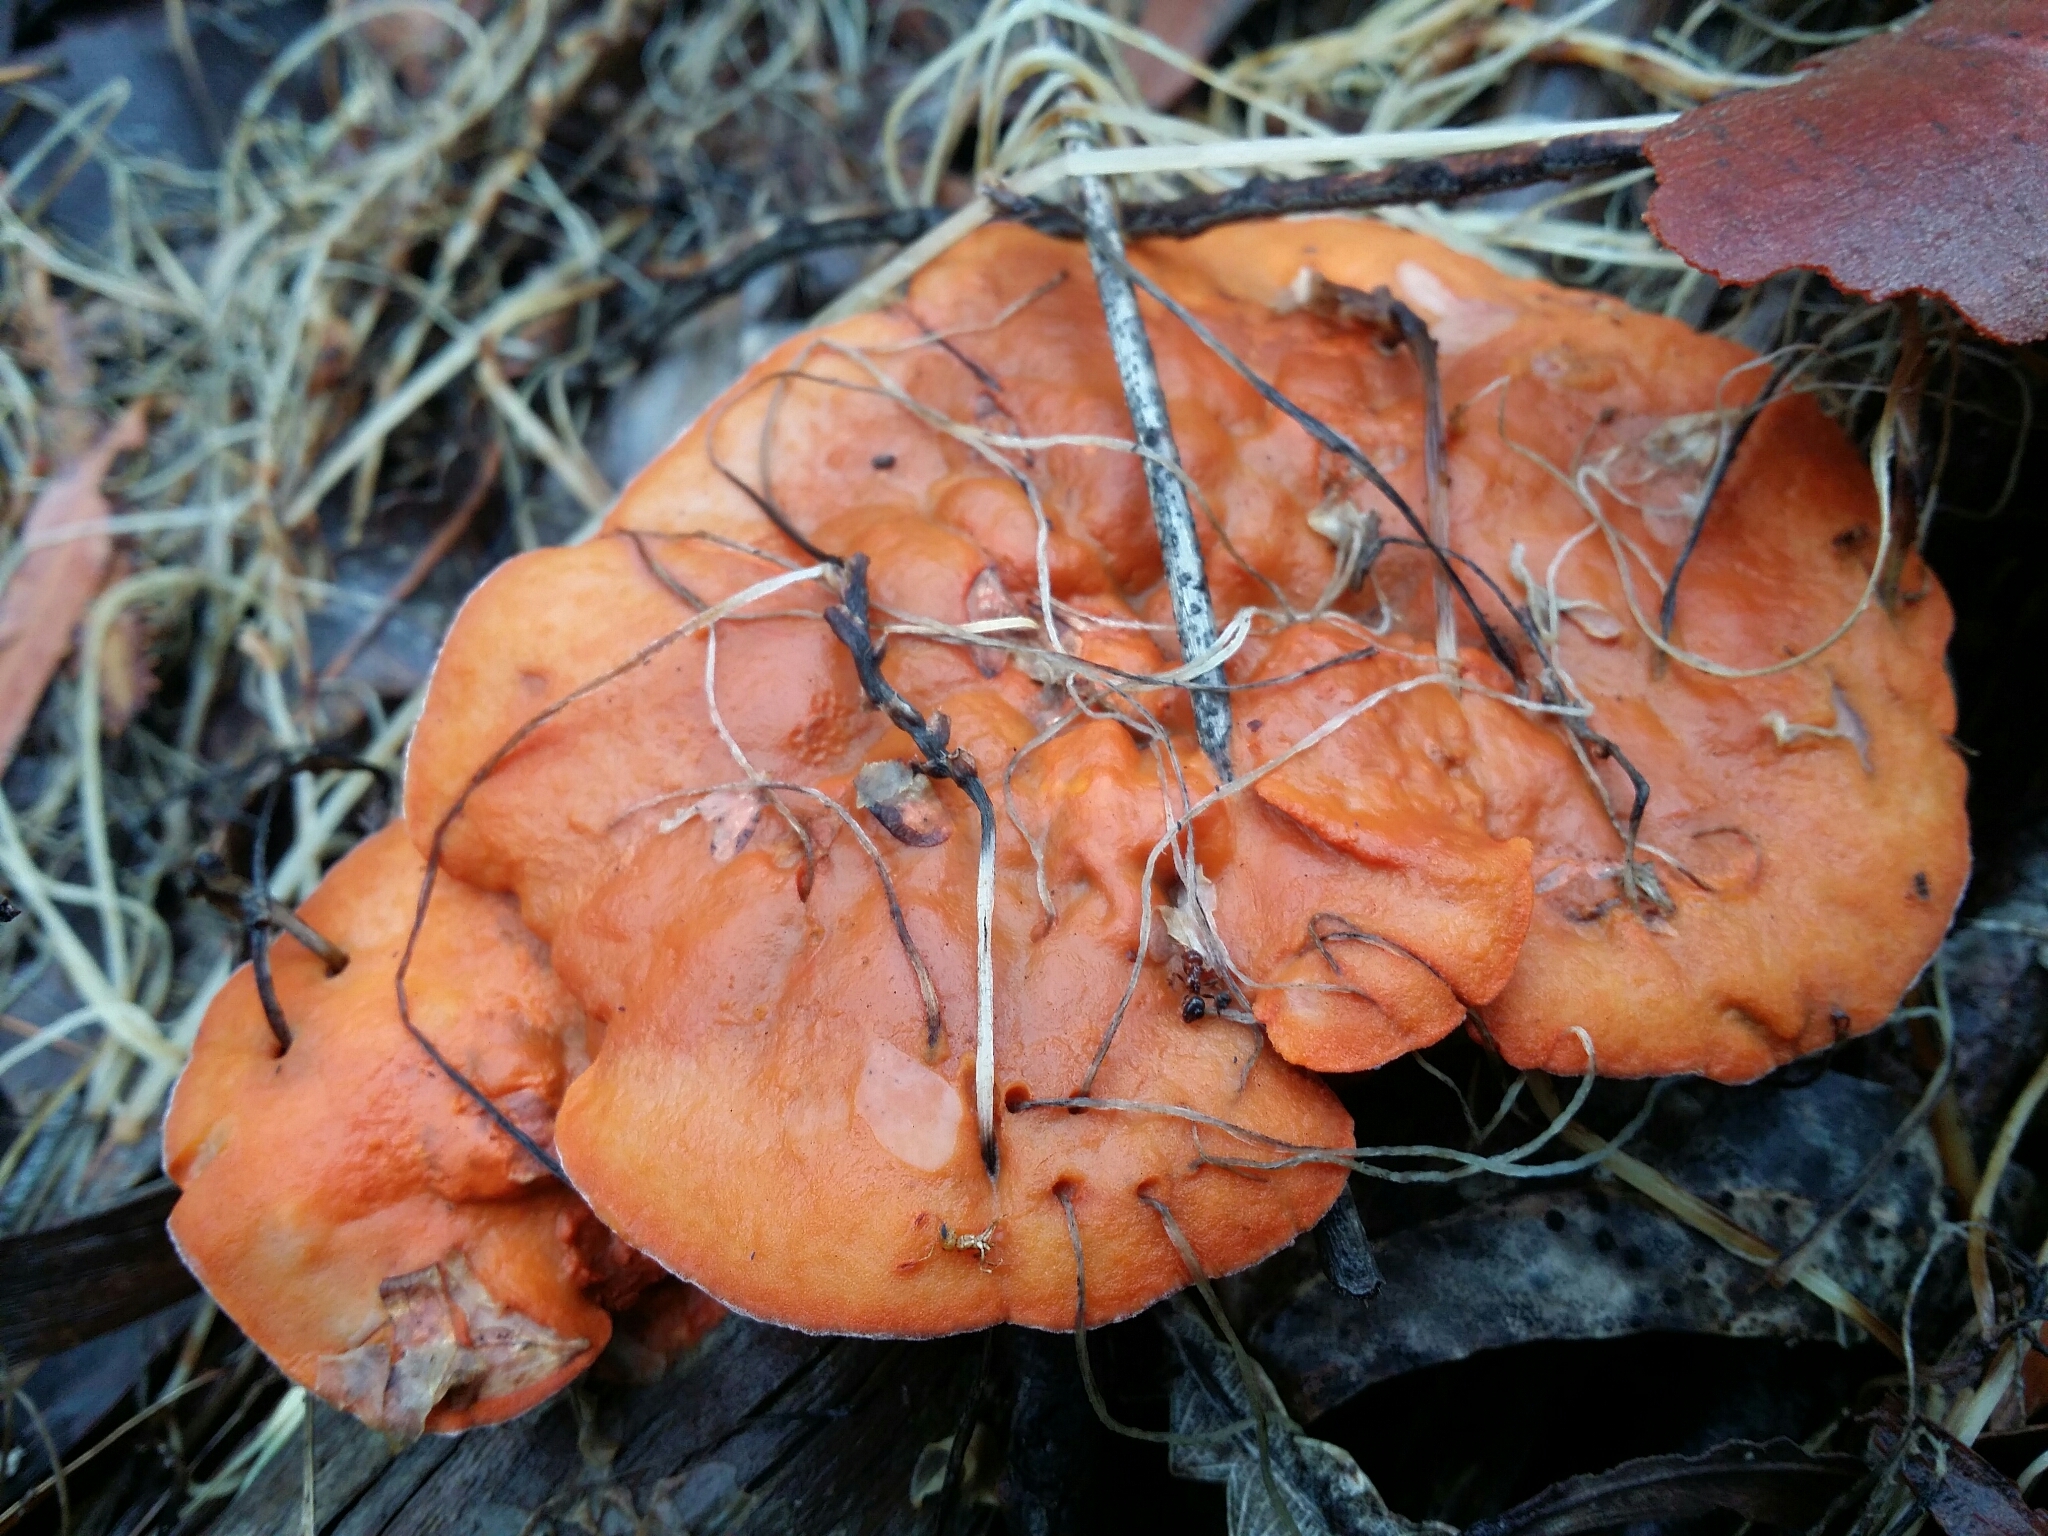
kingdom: Fungi
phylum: Basidiomycota
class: Agaricomycetes
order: Polyporales
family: Polyporaceae
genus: Trametes
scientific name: Trametes coccinea
